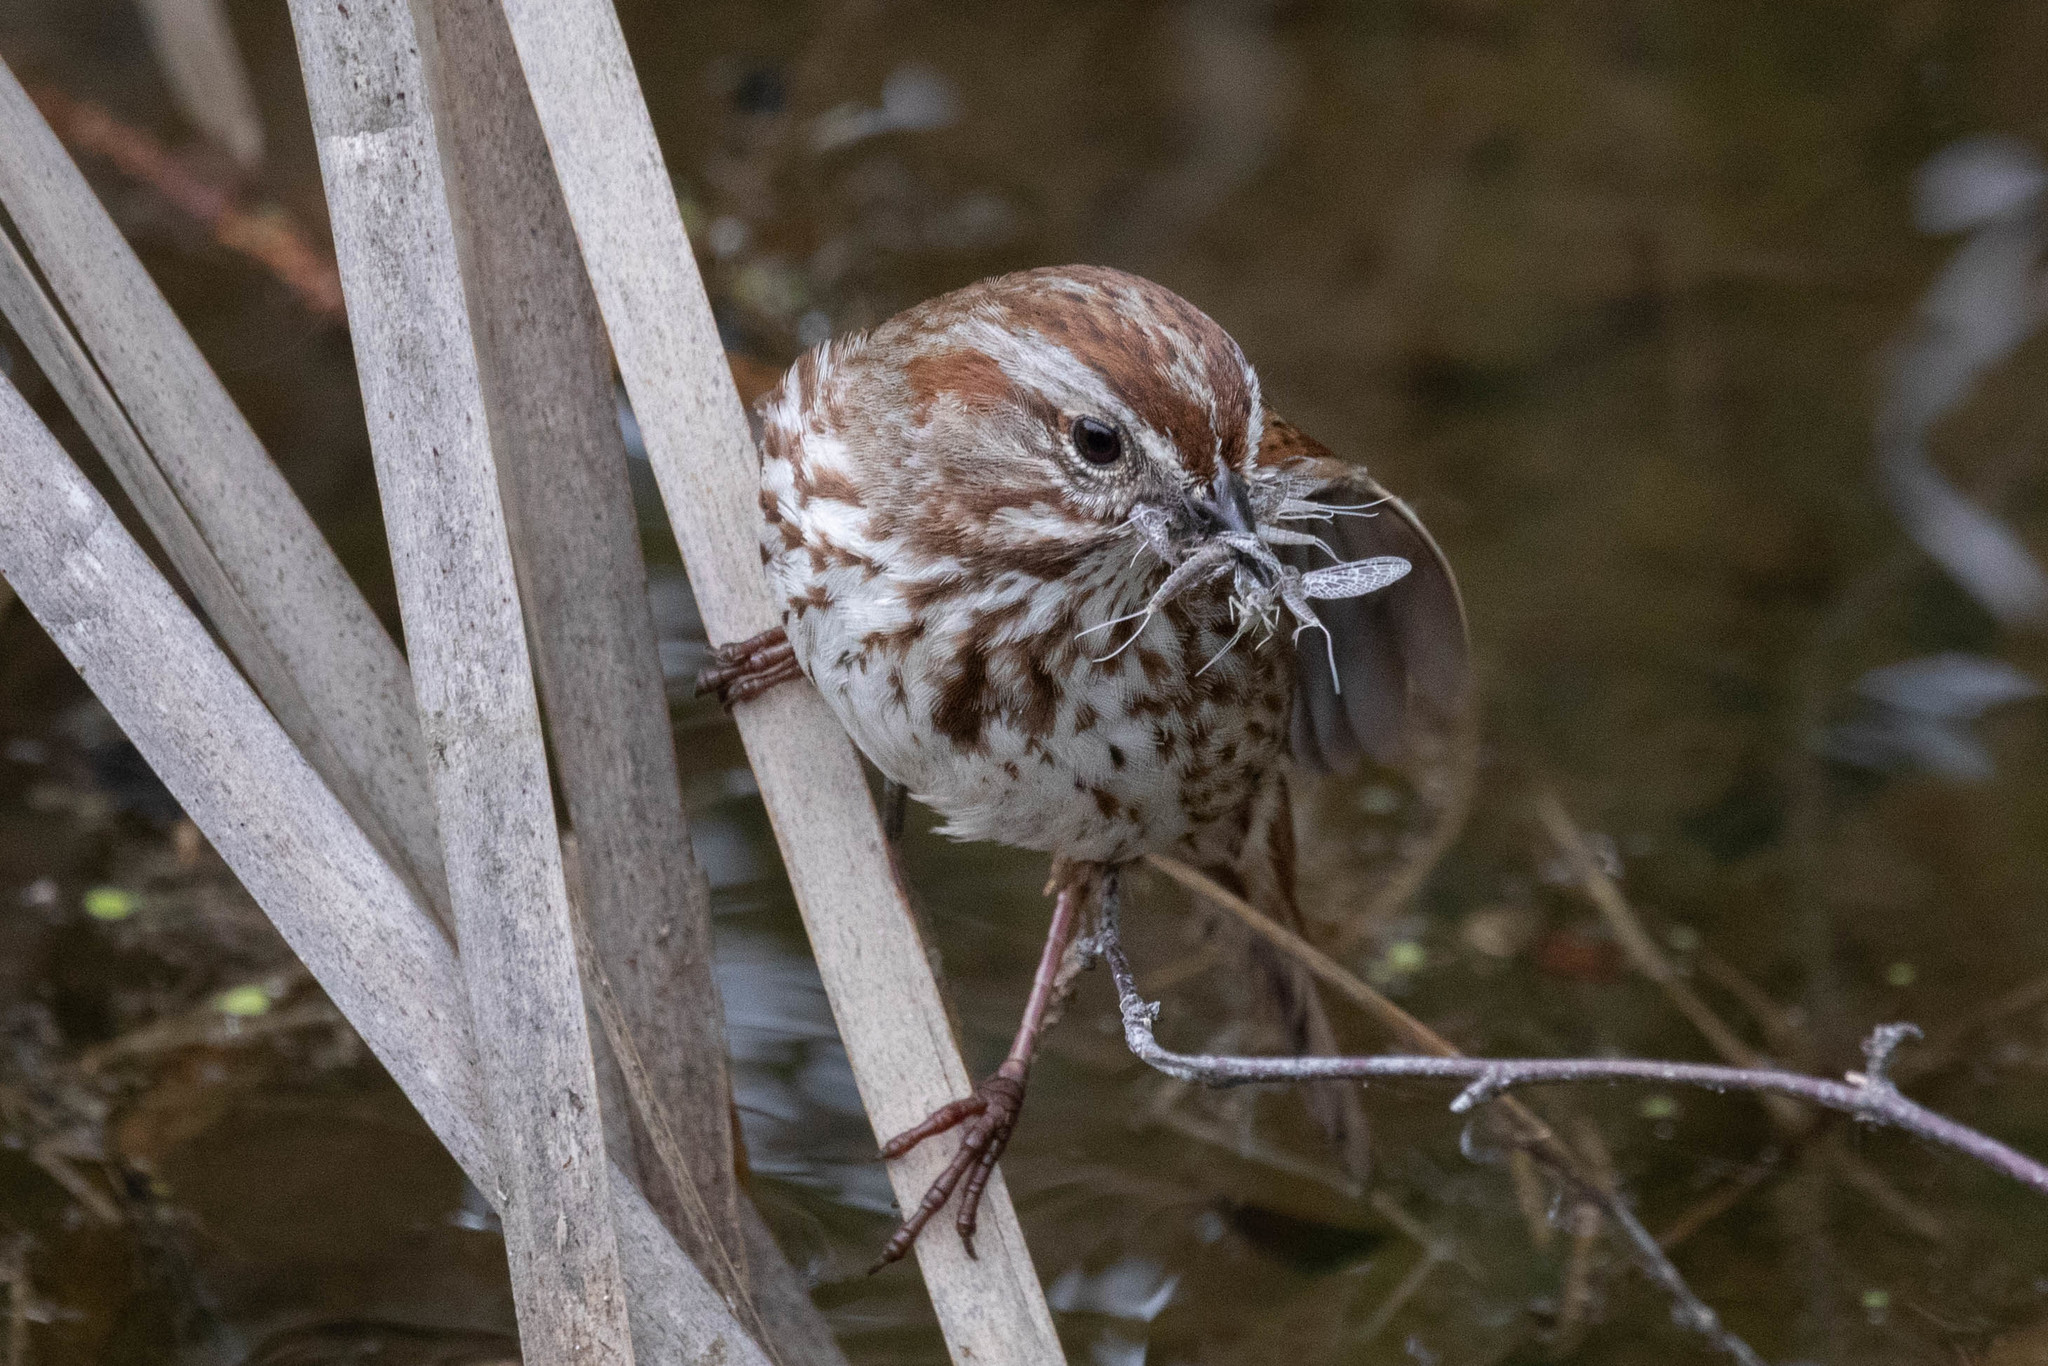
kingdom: Animalia
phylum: Chordata
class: Aves
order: Passeriformes
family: Passerellidae
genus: Melospiza
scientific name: Melospiza melodia
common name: Song sparrow
